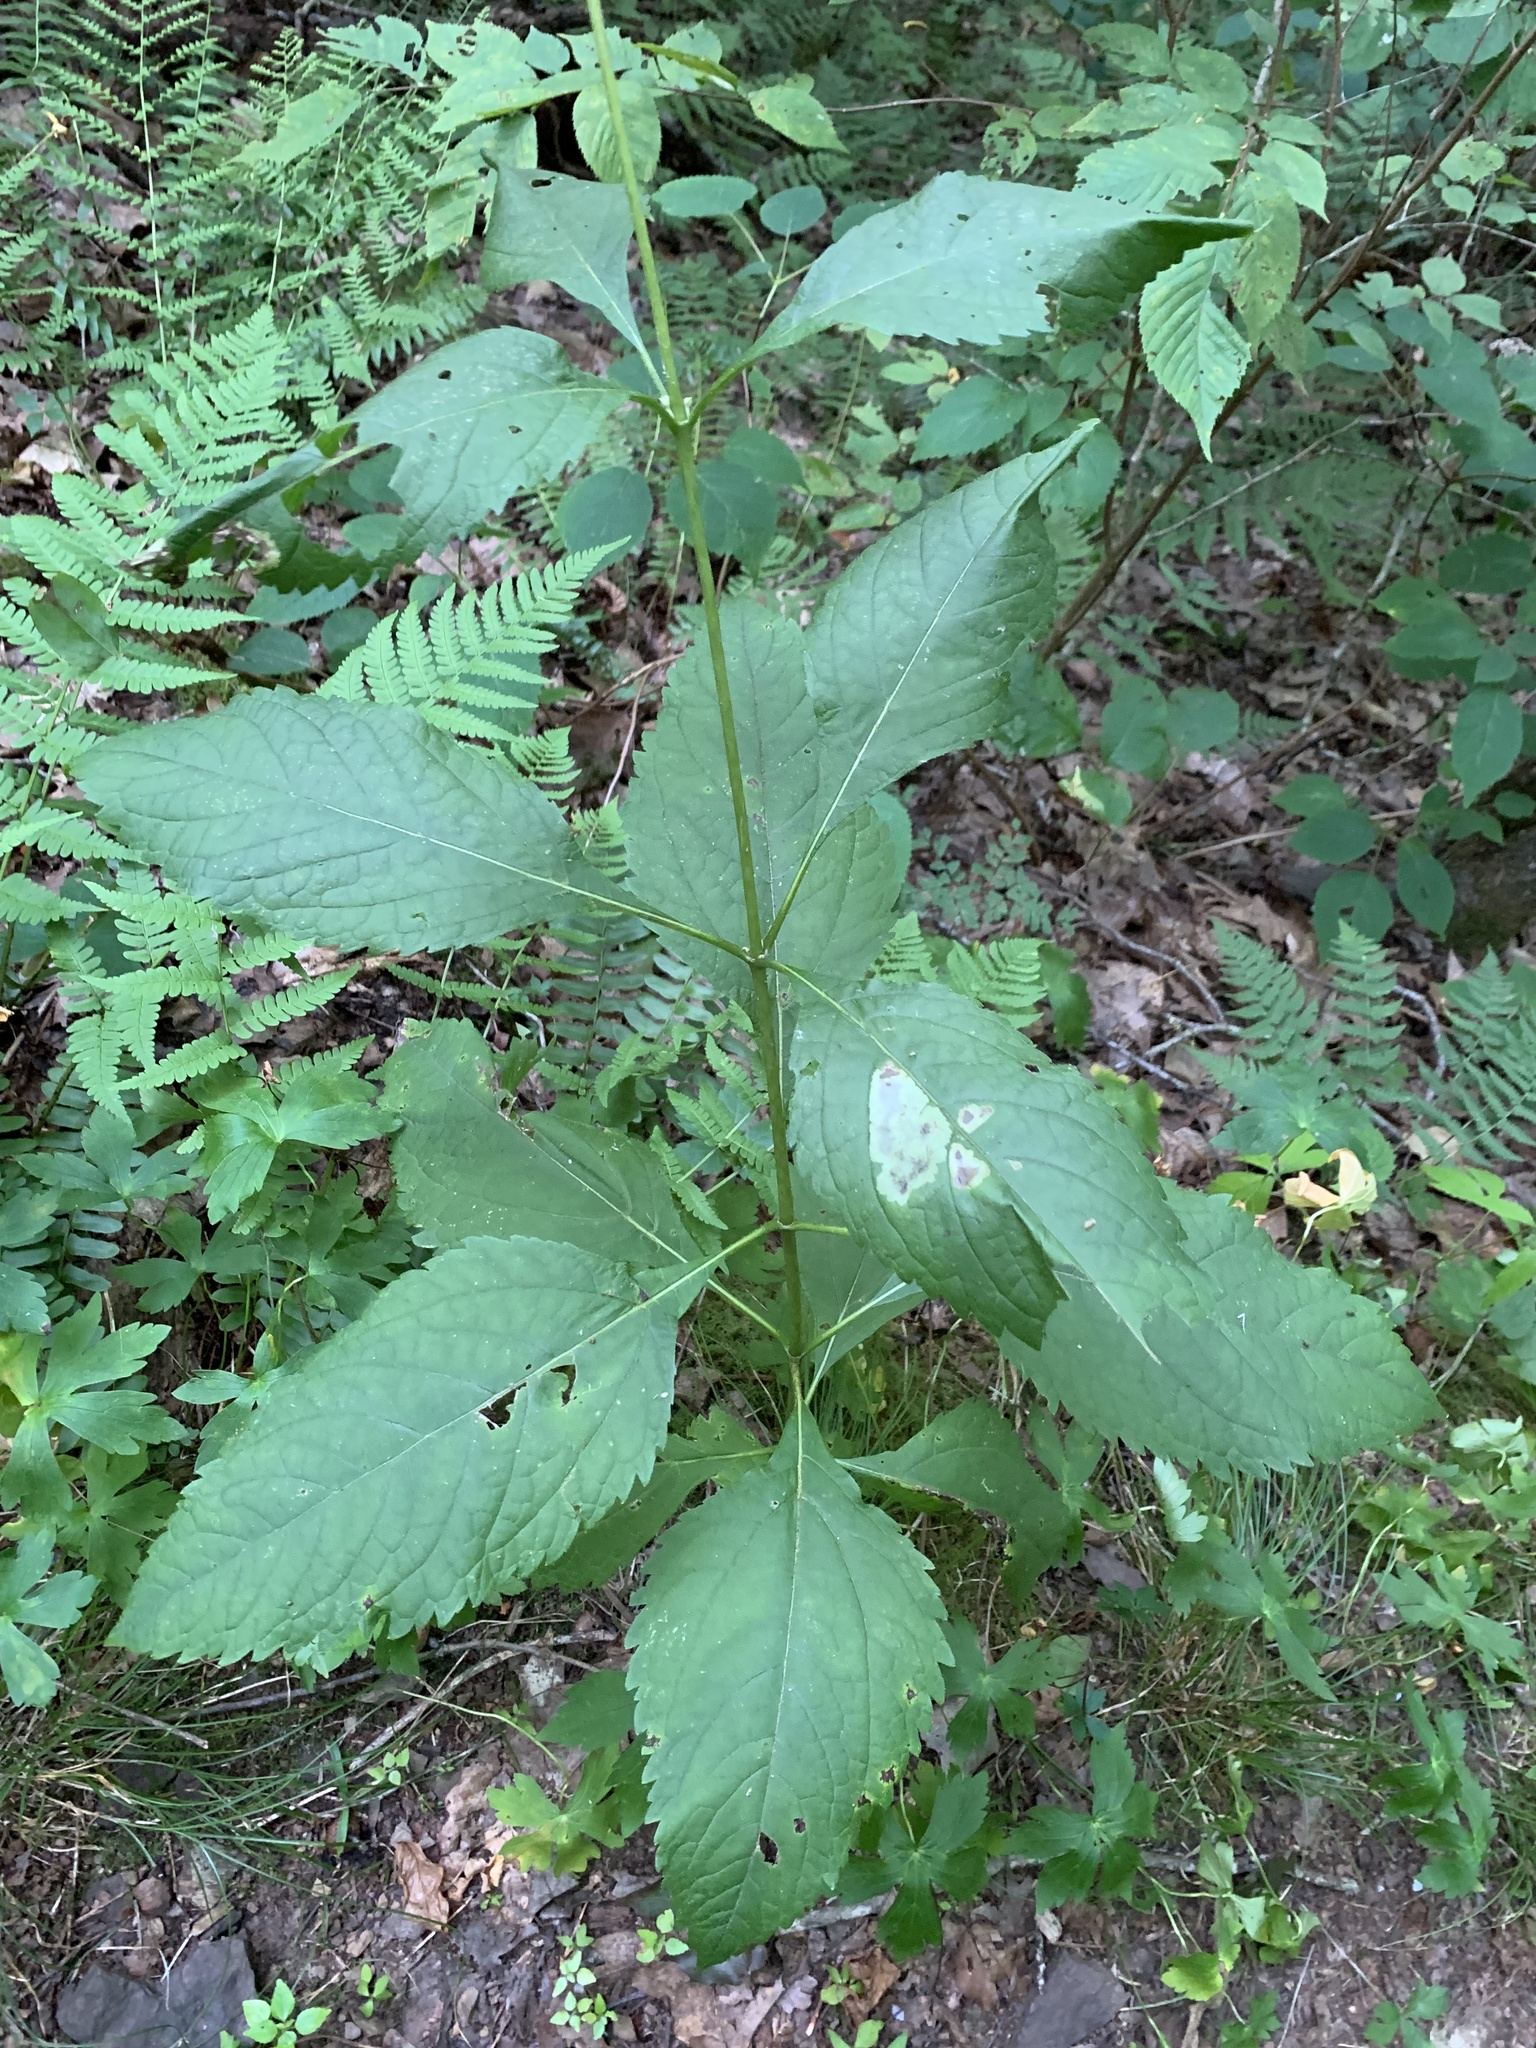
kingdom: Plantae
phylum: Tracheophyta
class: Magnoliopsida
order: Asterales
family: Asteraceae
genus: Eutrochium
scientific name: Eutrochium purpureum
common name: Gravelroot
